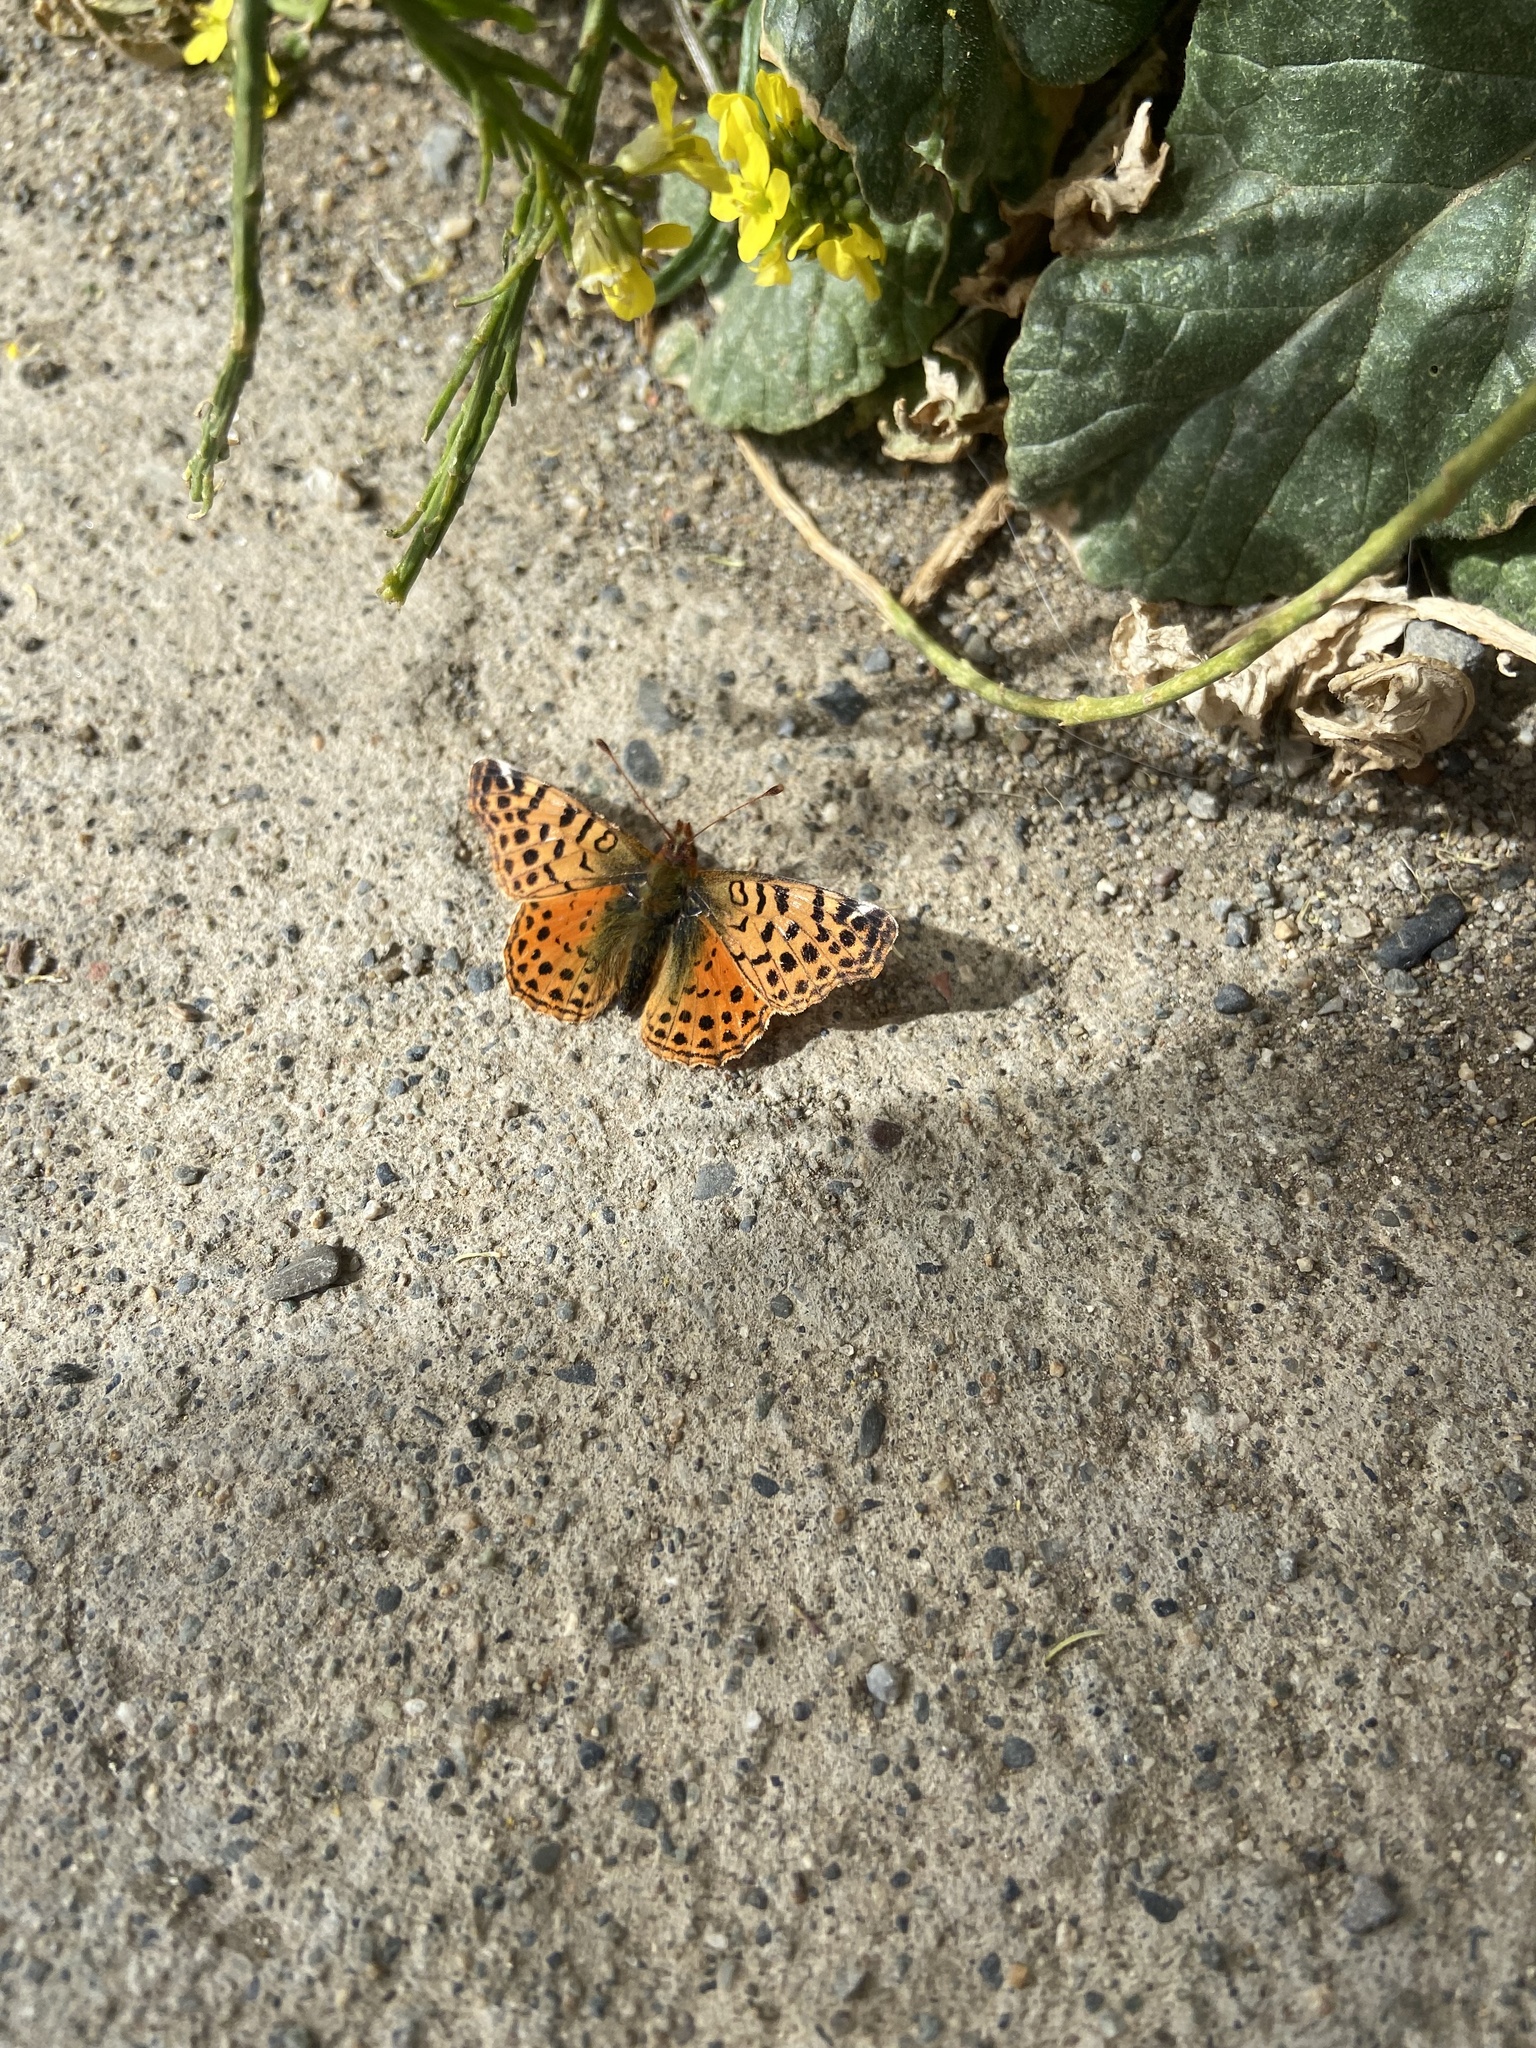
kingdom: Animalia
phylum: Arthropoda
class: Insecta
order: Lepidoptera
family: Nymphalidae
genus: Issoria
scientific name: Issoria Yramea cytheris
